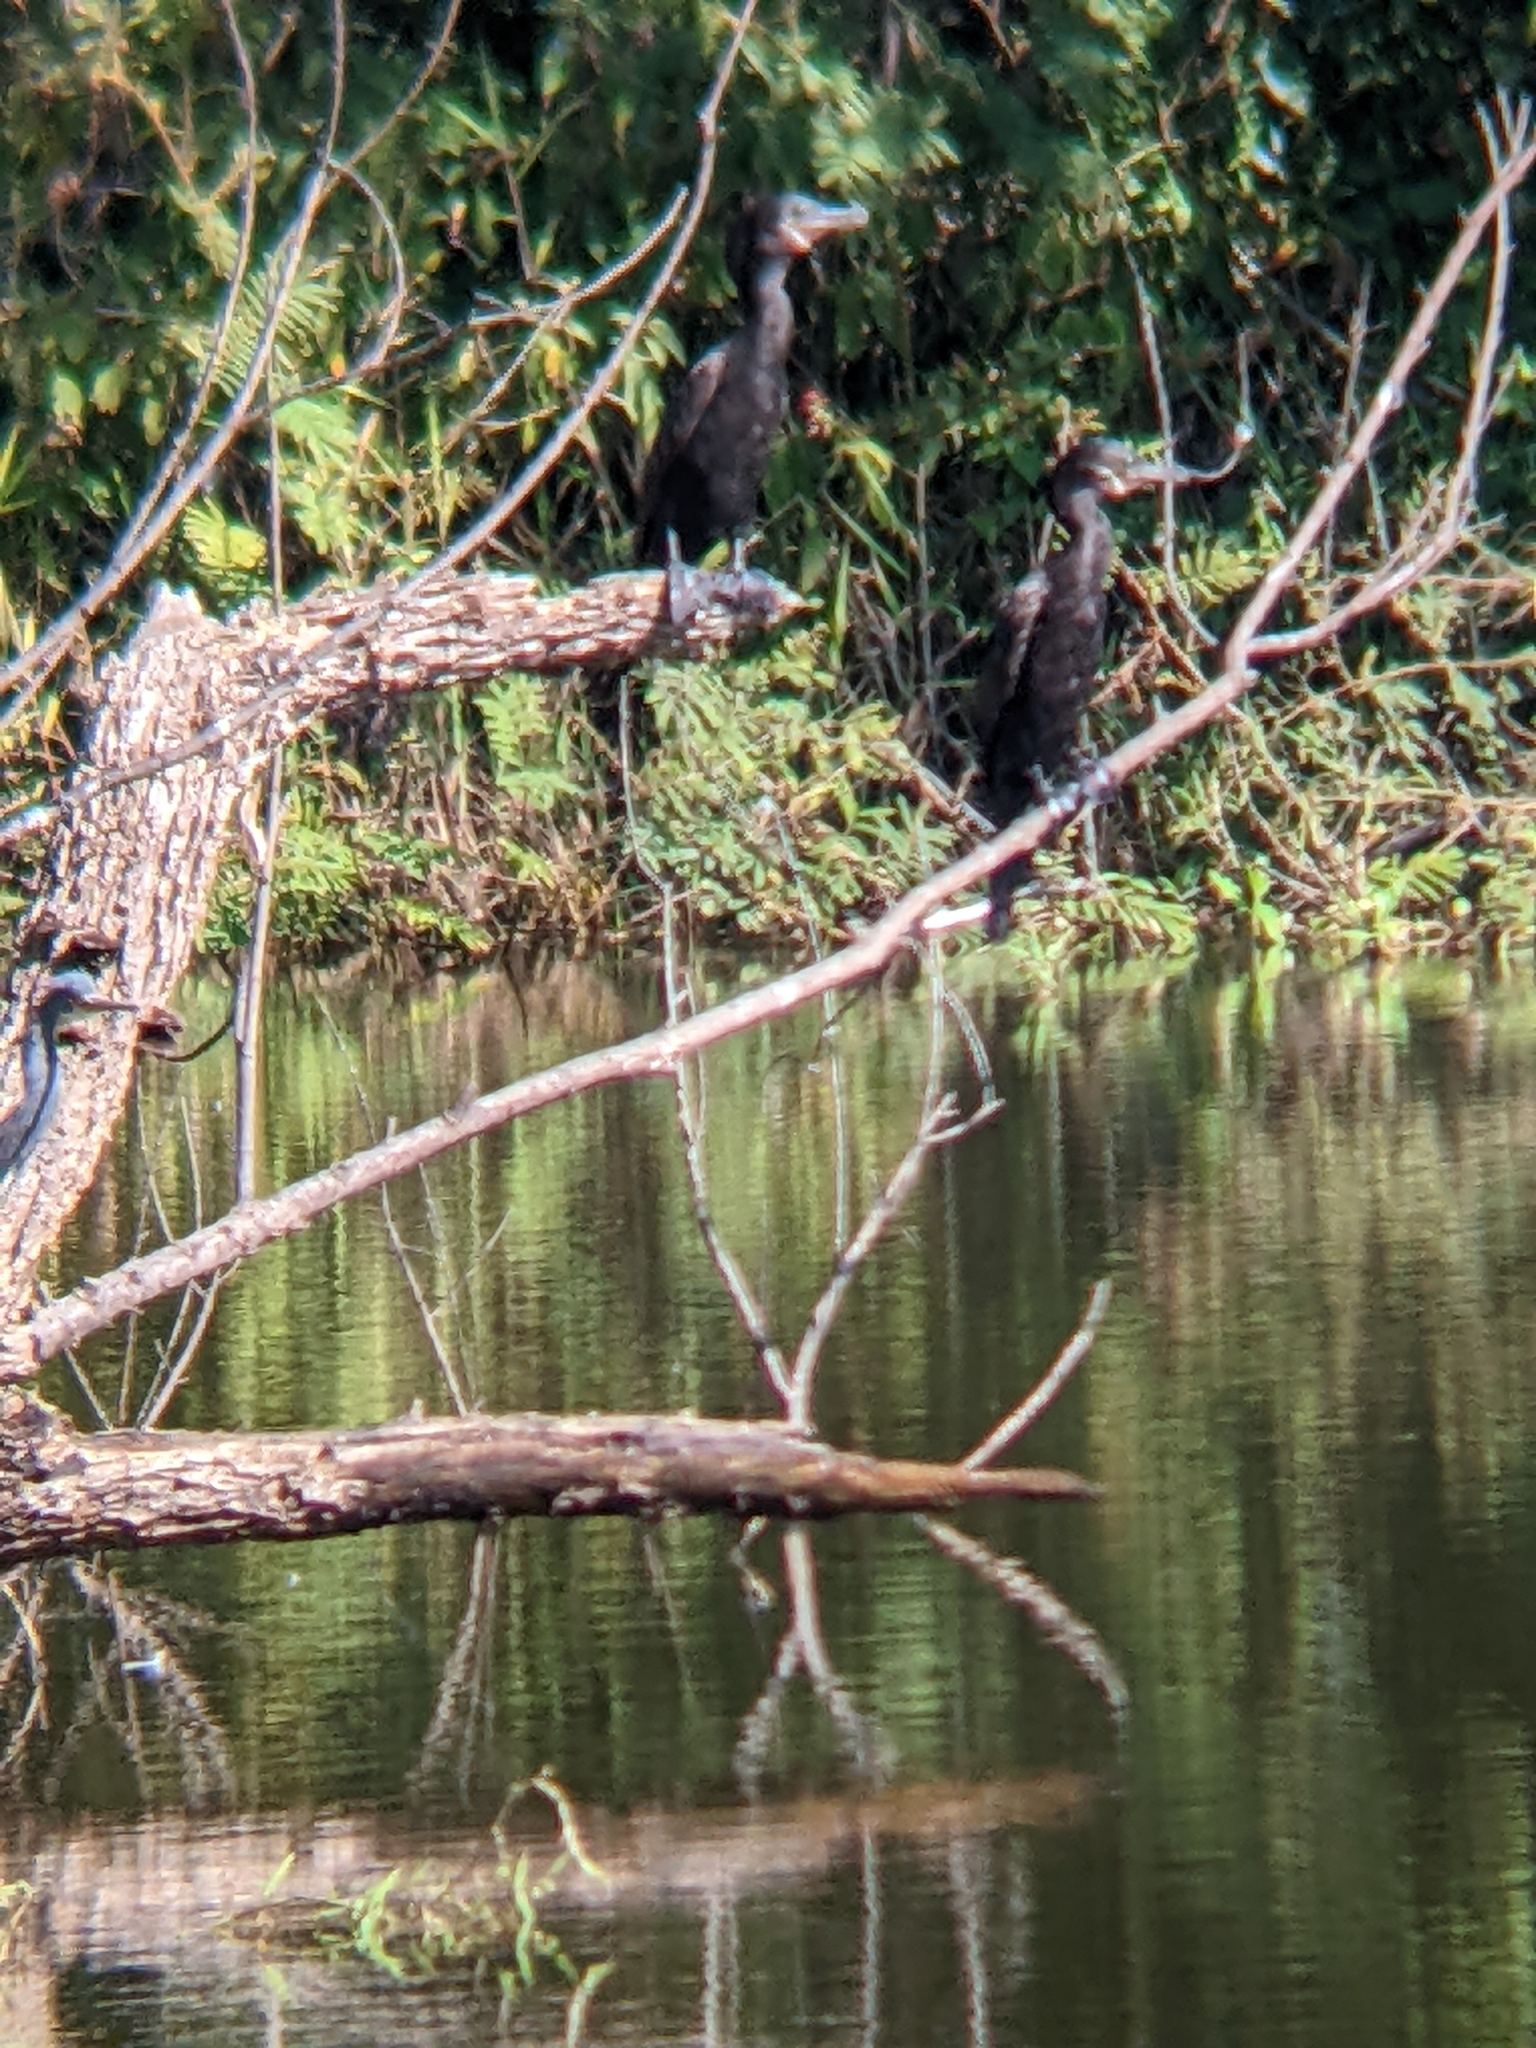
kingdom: Animalia
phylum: Chordata
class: Aves
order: Suliformes
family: Phalacrocoracidae
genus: Phalacrocorax
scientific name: Phalacrocorax brasilianus
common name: Neotropic cormorant
